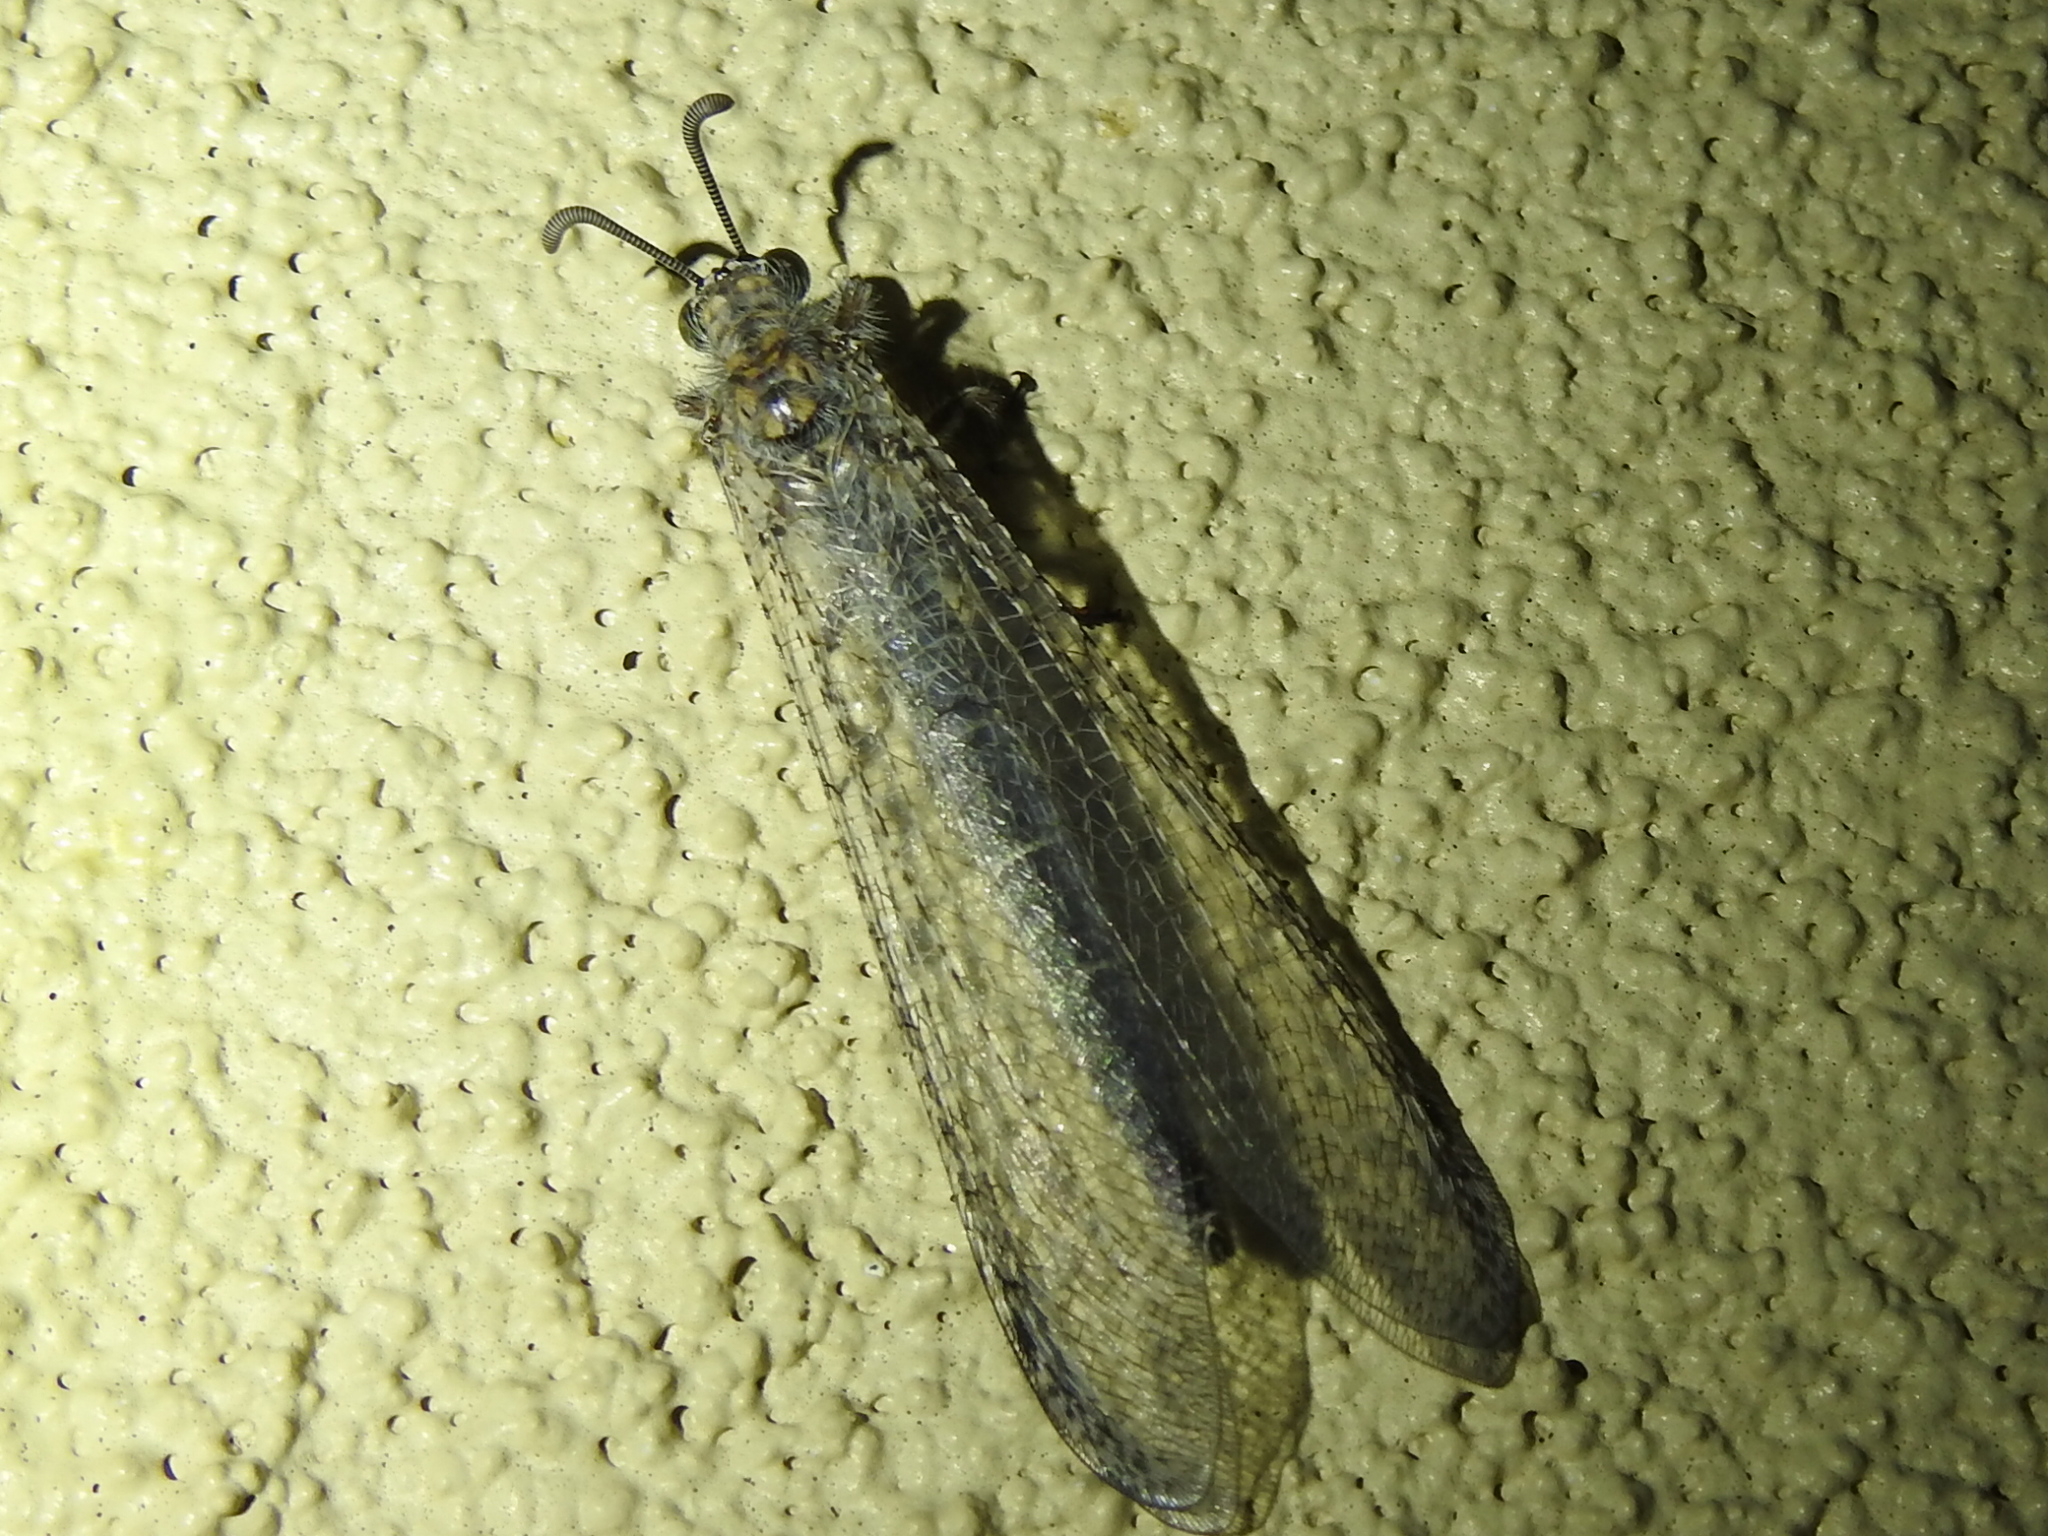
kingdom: Animalia
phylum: Arthropoda
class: Insecta
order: Neuroptera
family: Myrmeleontidae
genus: Paranthaclisis
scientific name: Paranthaclisis hageni
